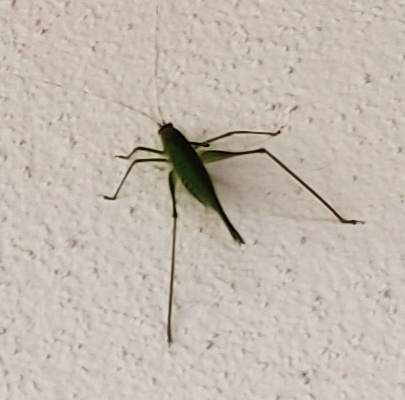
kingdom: Animalia
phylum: Arthropoda
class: Insecta
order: Orthoptera
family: Tettigoniidae
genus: Phaneroptera
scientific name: Phaneroptera nana
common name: Southern sickle bush-cricket
